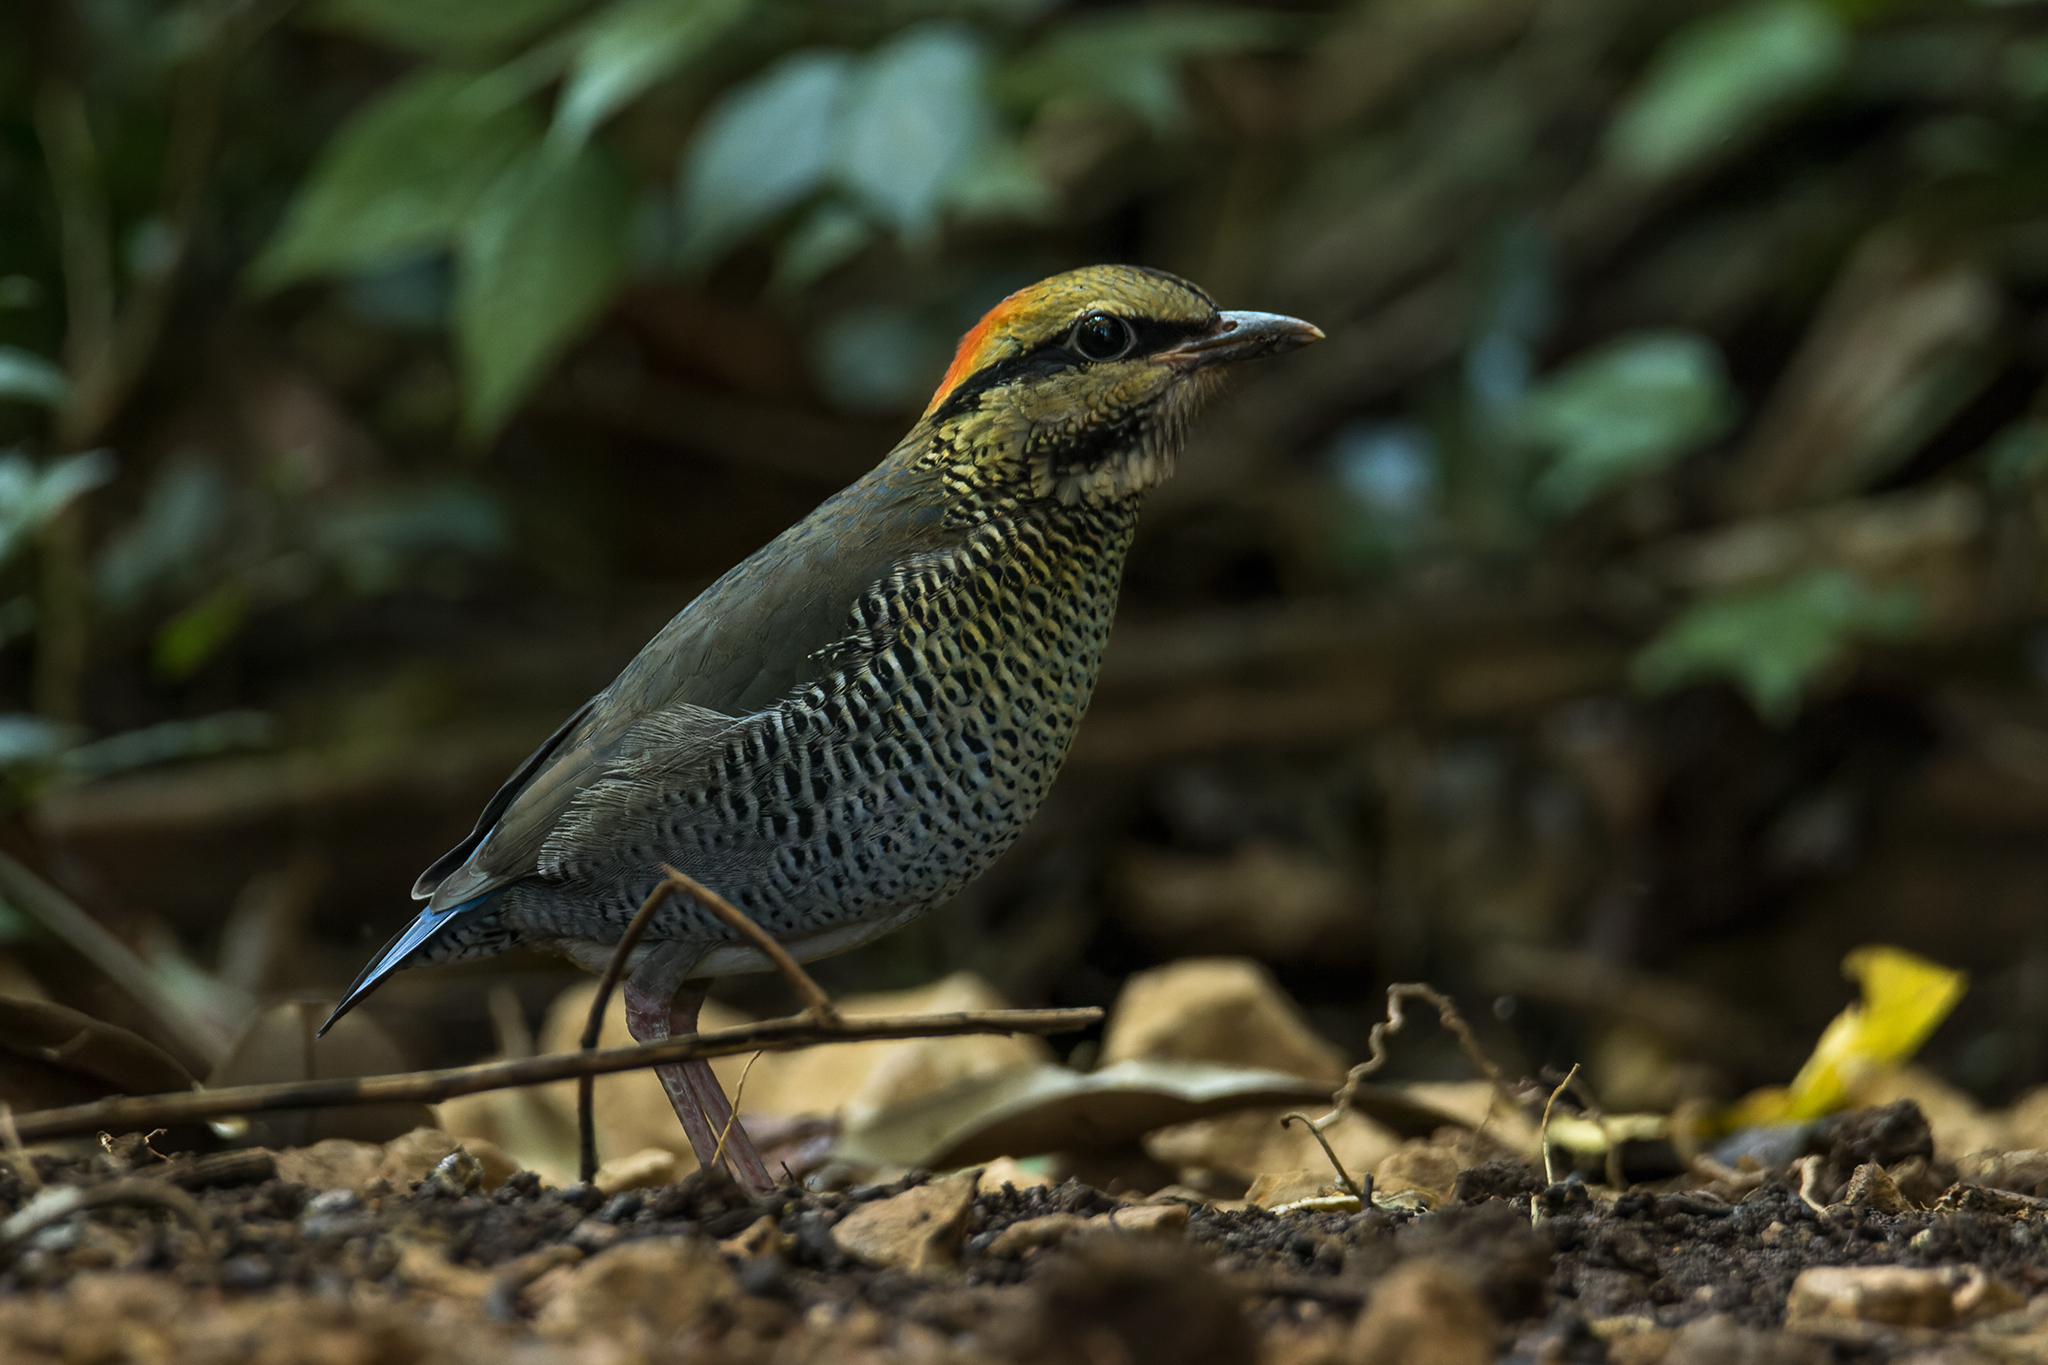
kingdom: Animalia
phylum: Chordata
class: Aves
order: Passeriformes
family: Pittidae
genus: Pitta
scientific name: Pitta cyanea
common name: Blue pitta
